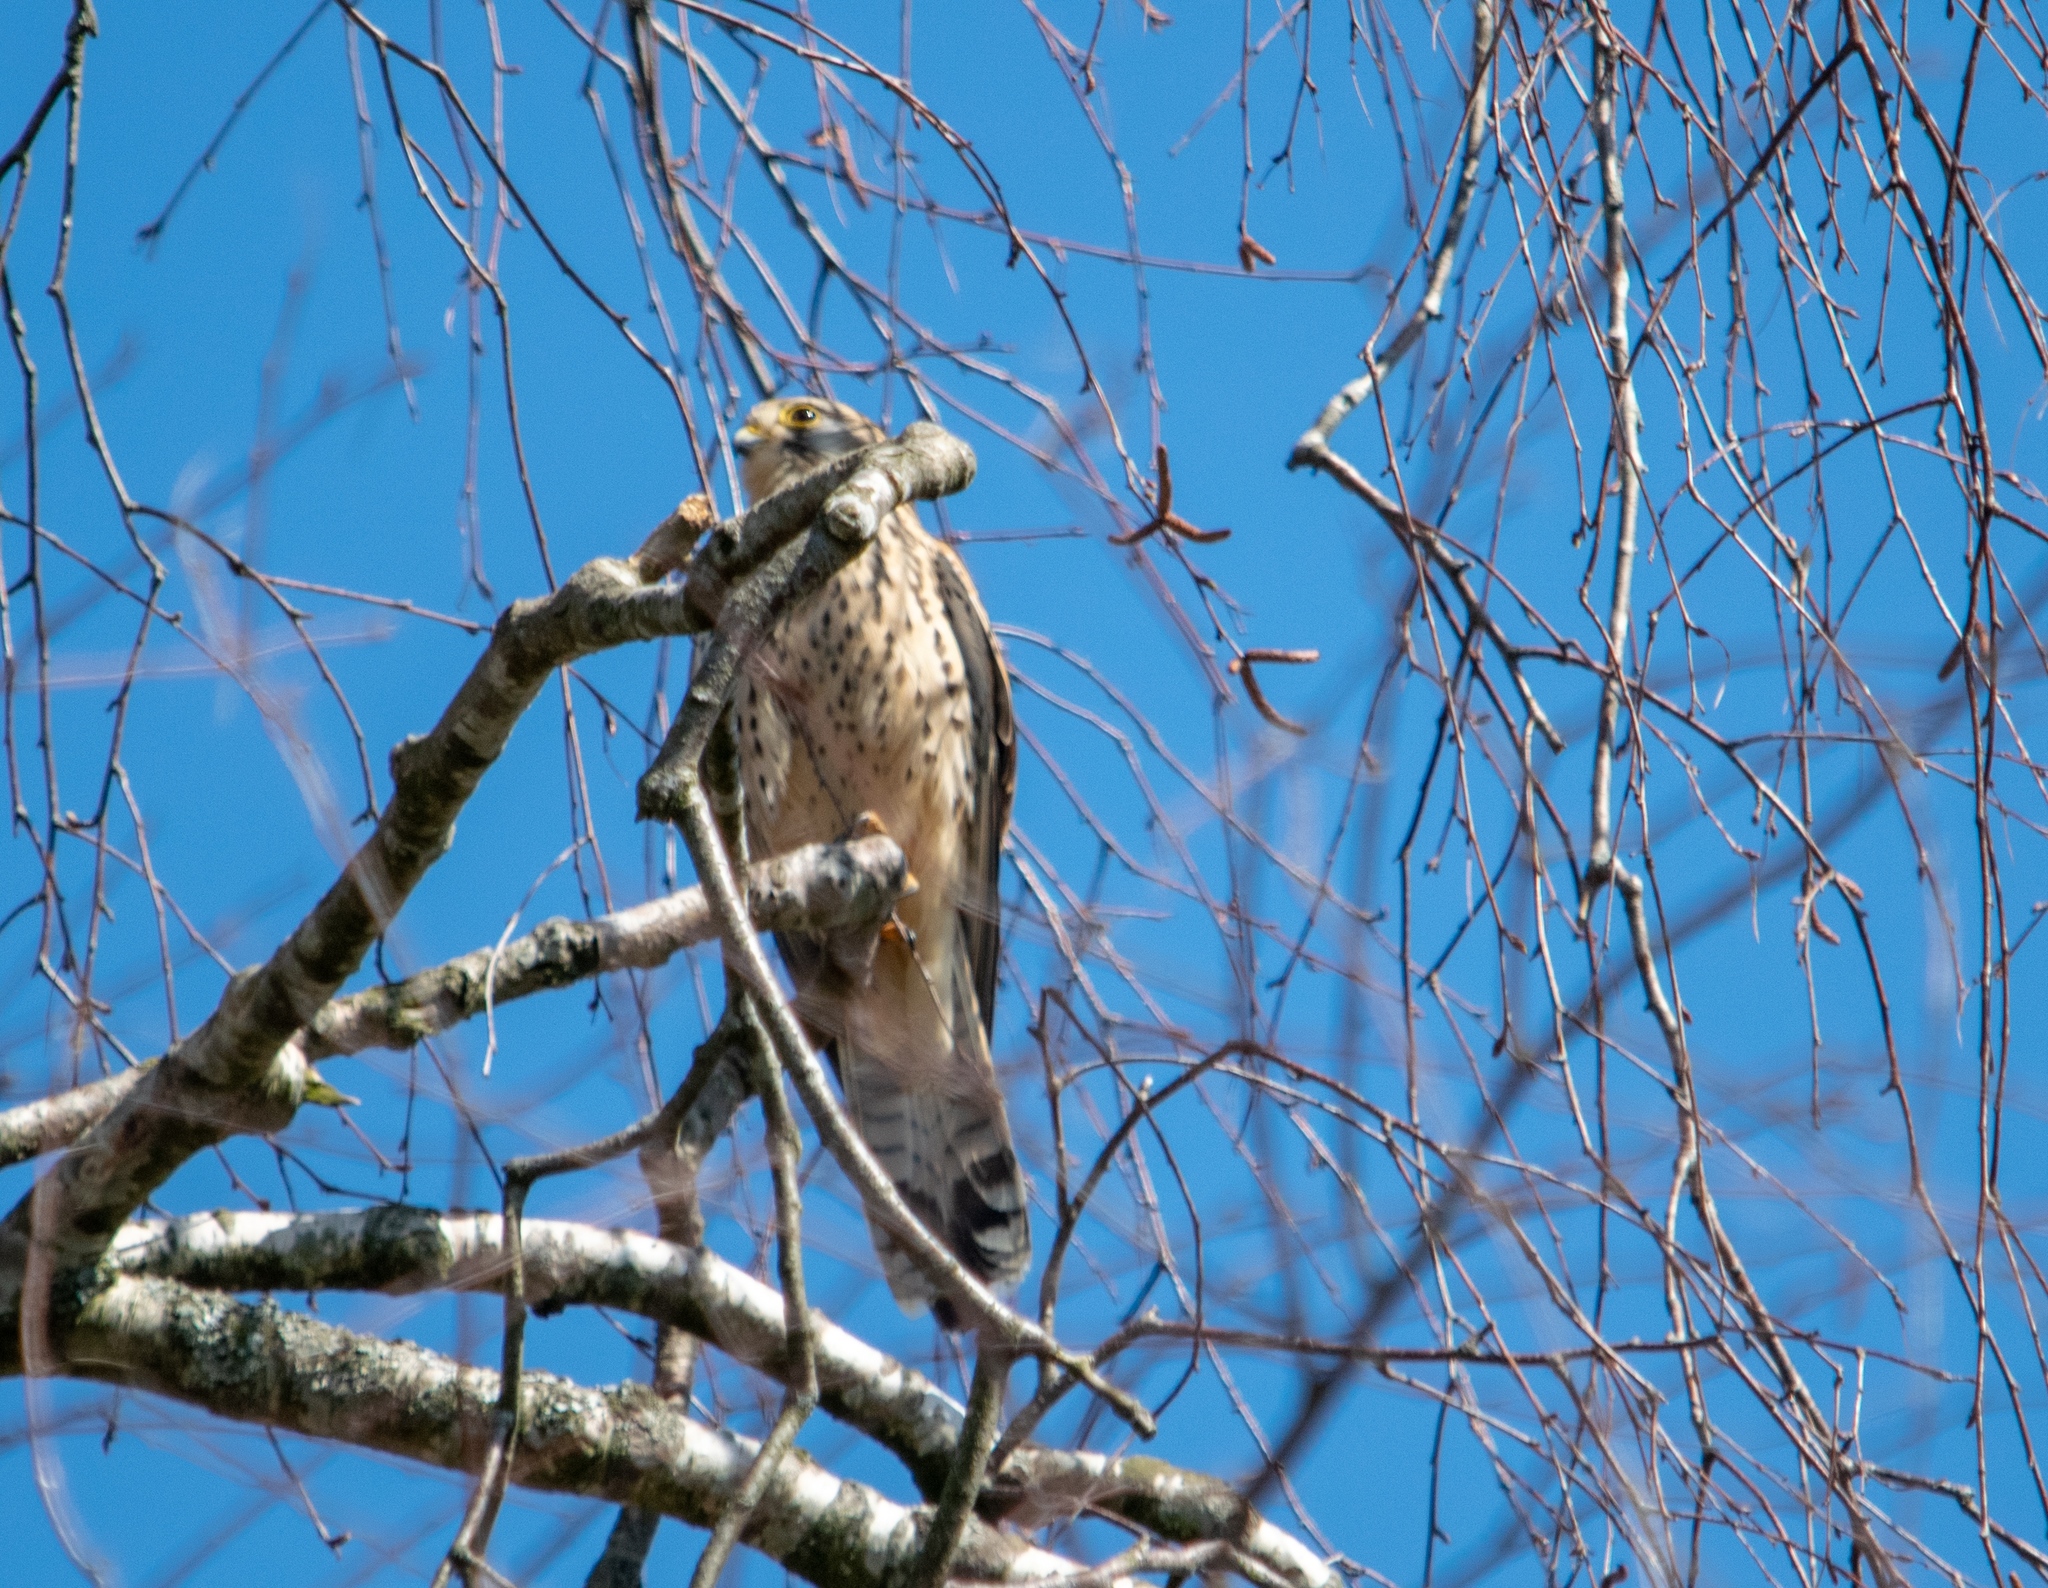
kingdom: Animalia
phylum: Chordata
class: Aves
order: Falconiformes
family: Falconidae
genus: Falco
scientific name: Falco tinnunculus
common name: Common kestrel
